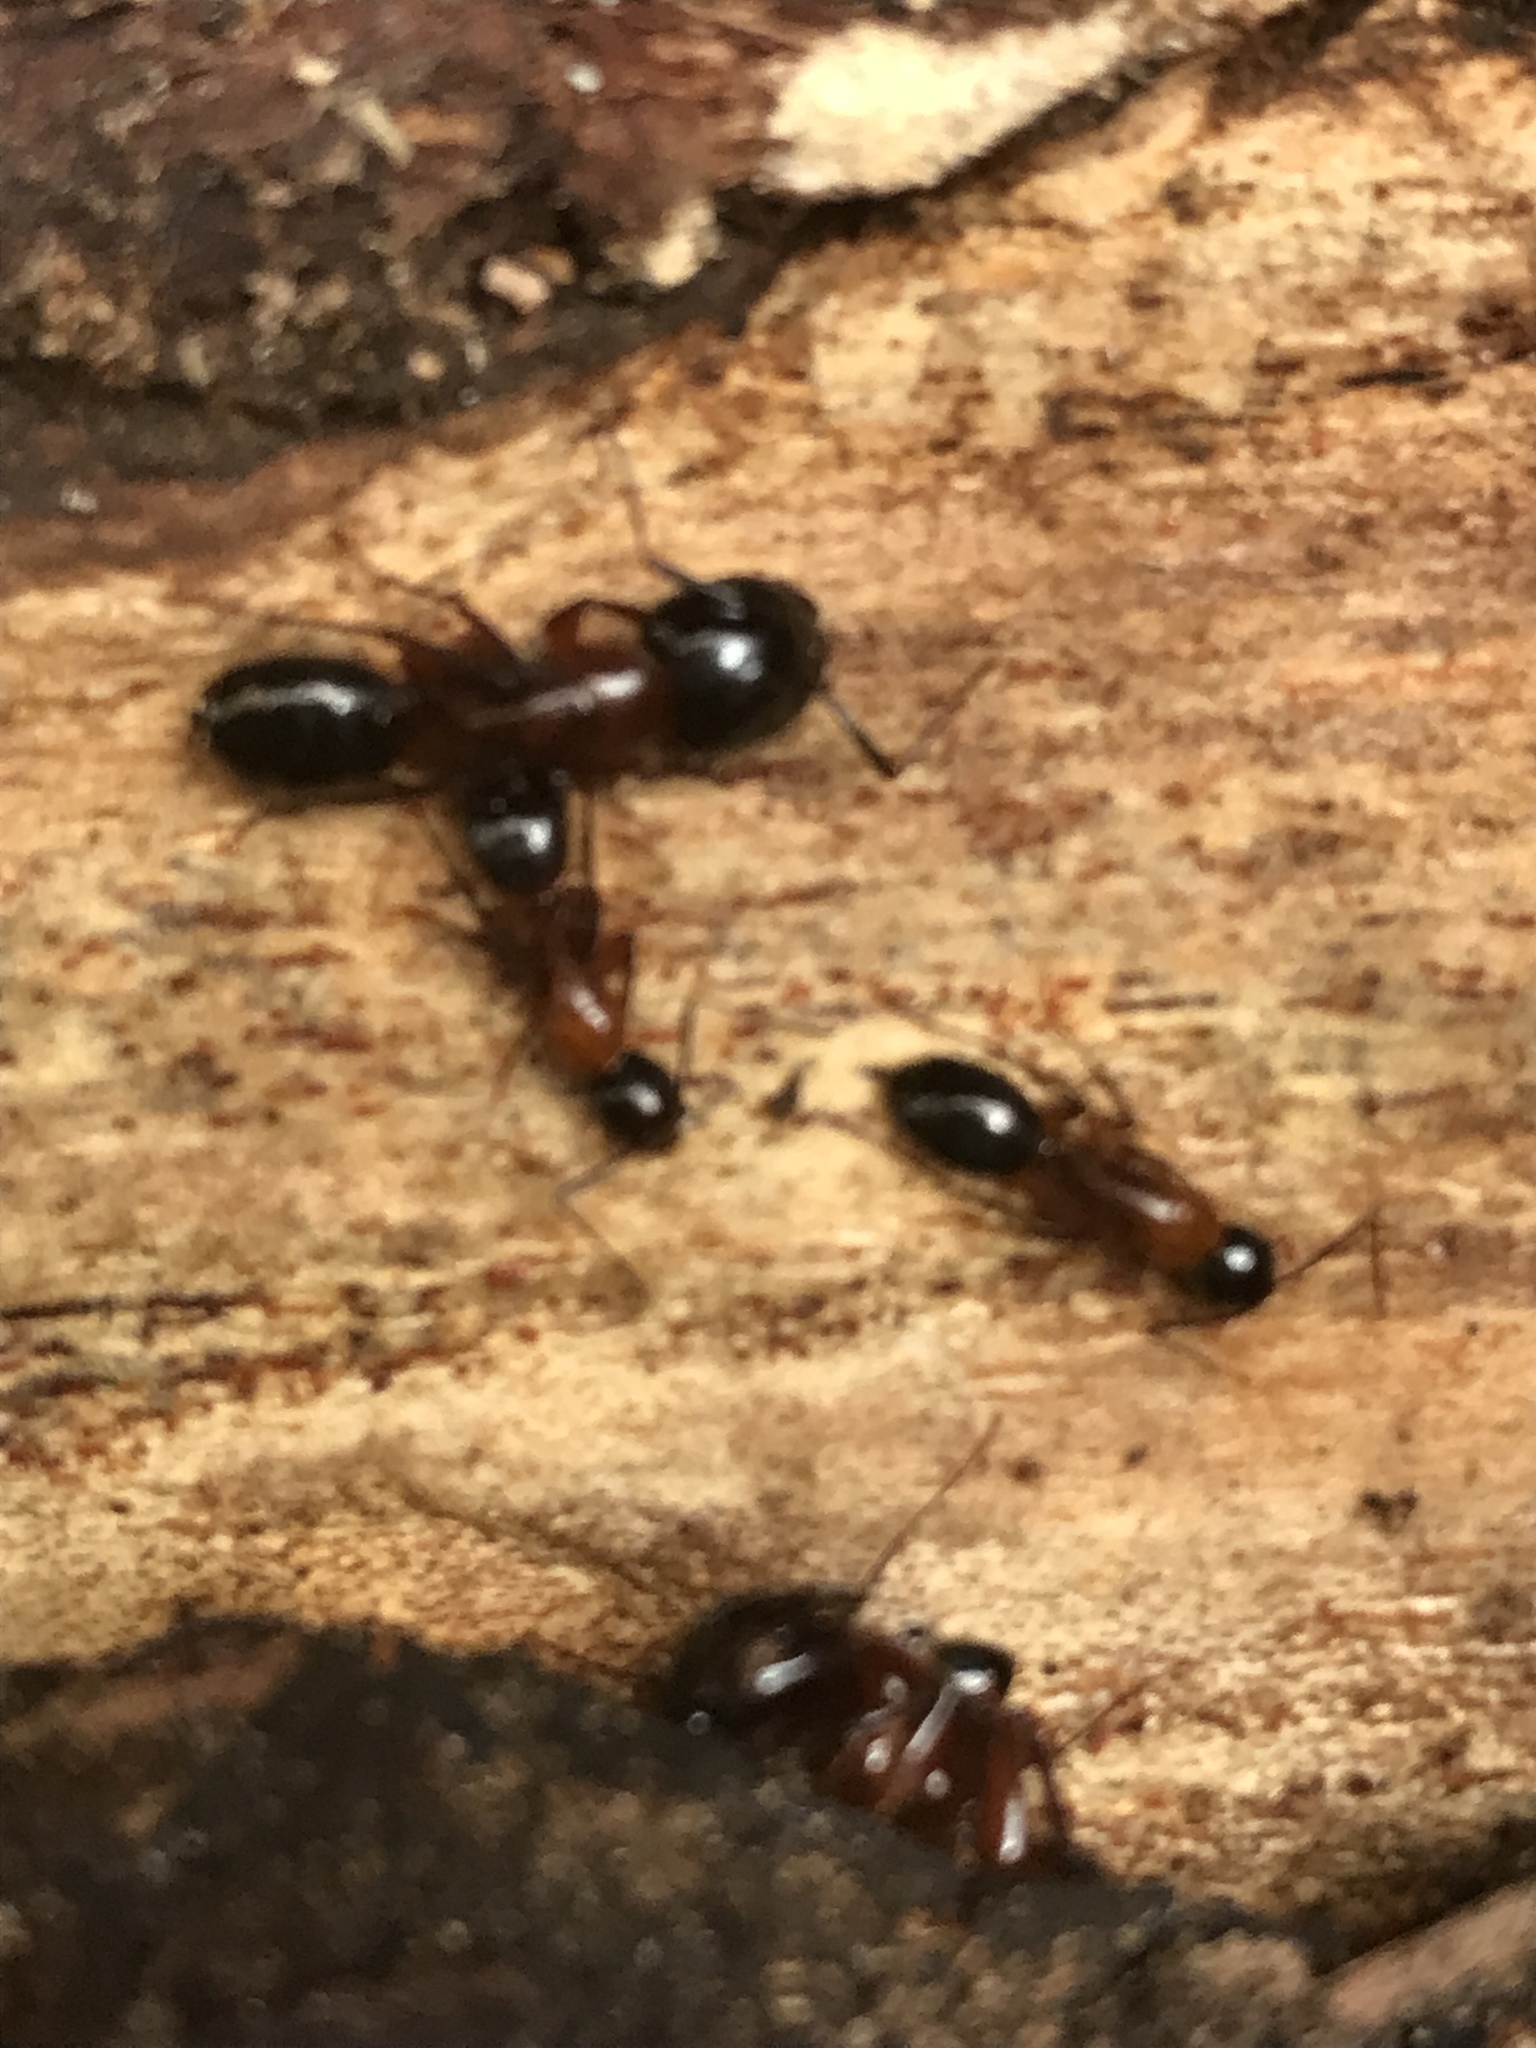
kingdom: Animalia
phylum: Arthropoda
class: Insecta
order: Hymenoptera
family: Formicidae
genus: Camponotus
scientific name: Camponotus texanus
